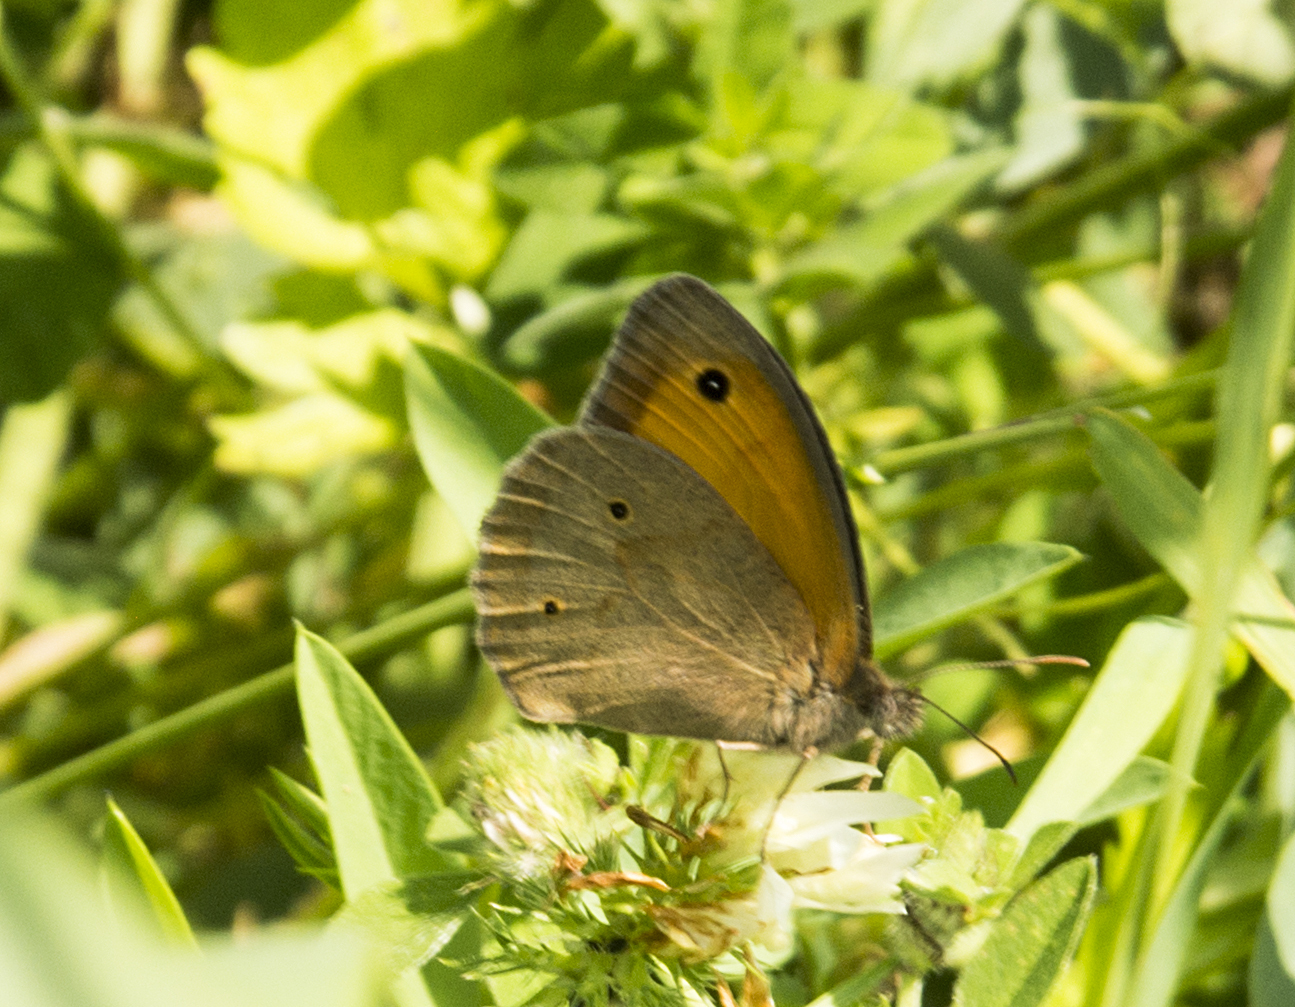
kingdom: Animalia
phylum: Arthropoda
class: Insecta
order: Lepidoptera
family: Nymphalidae
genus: Maniola
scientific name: Maniola jurtina
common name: Meadow brown
